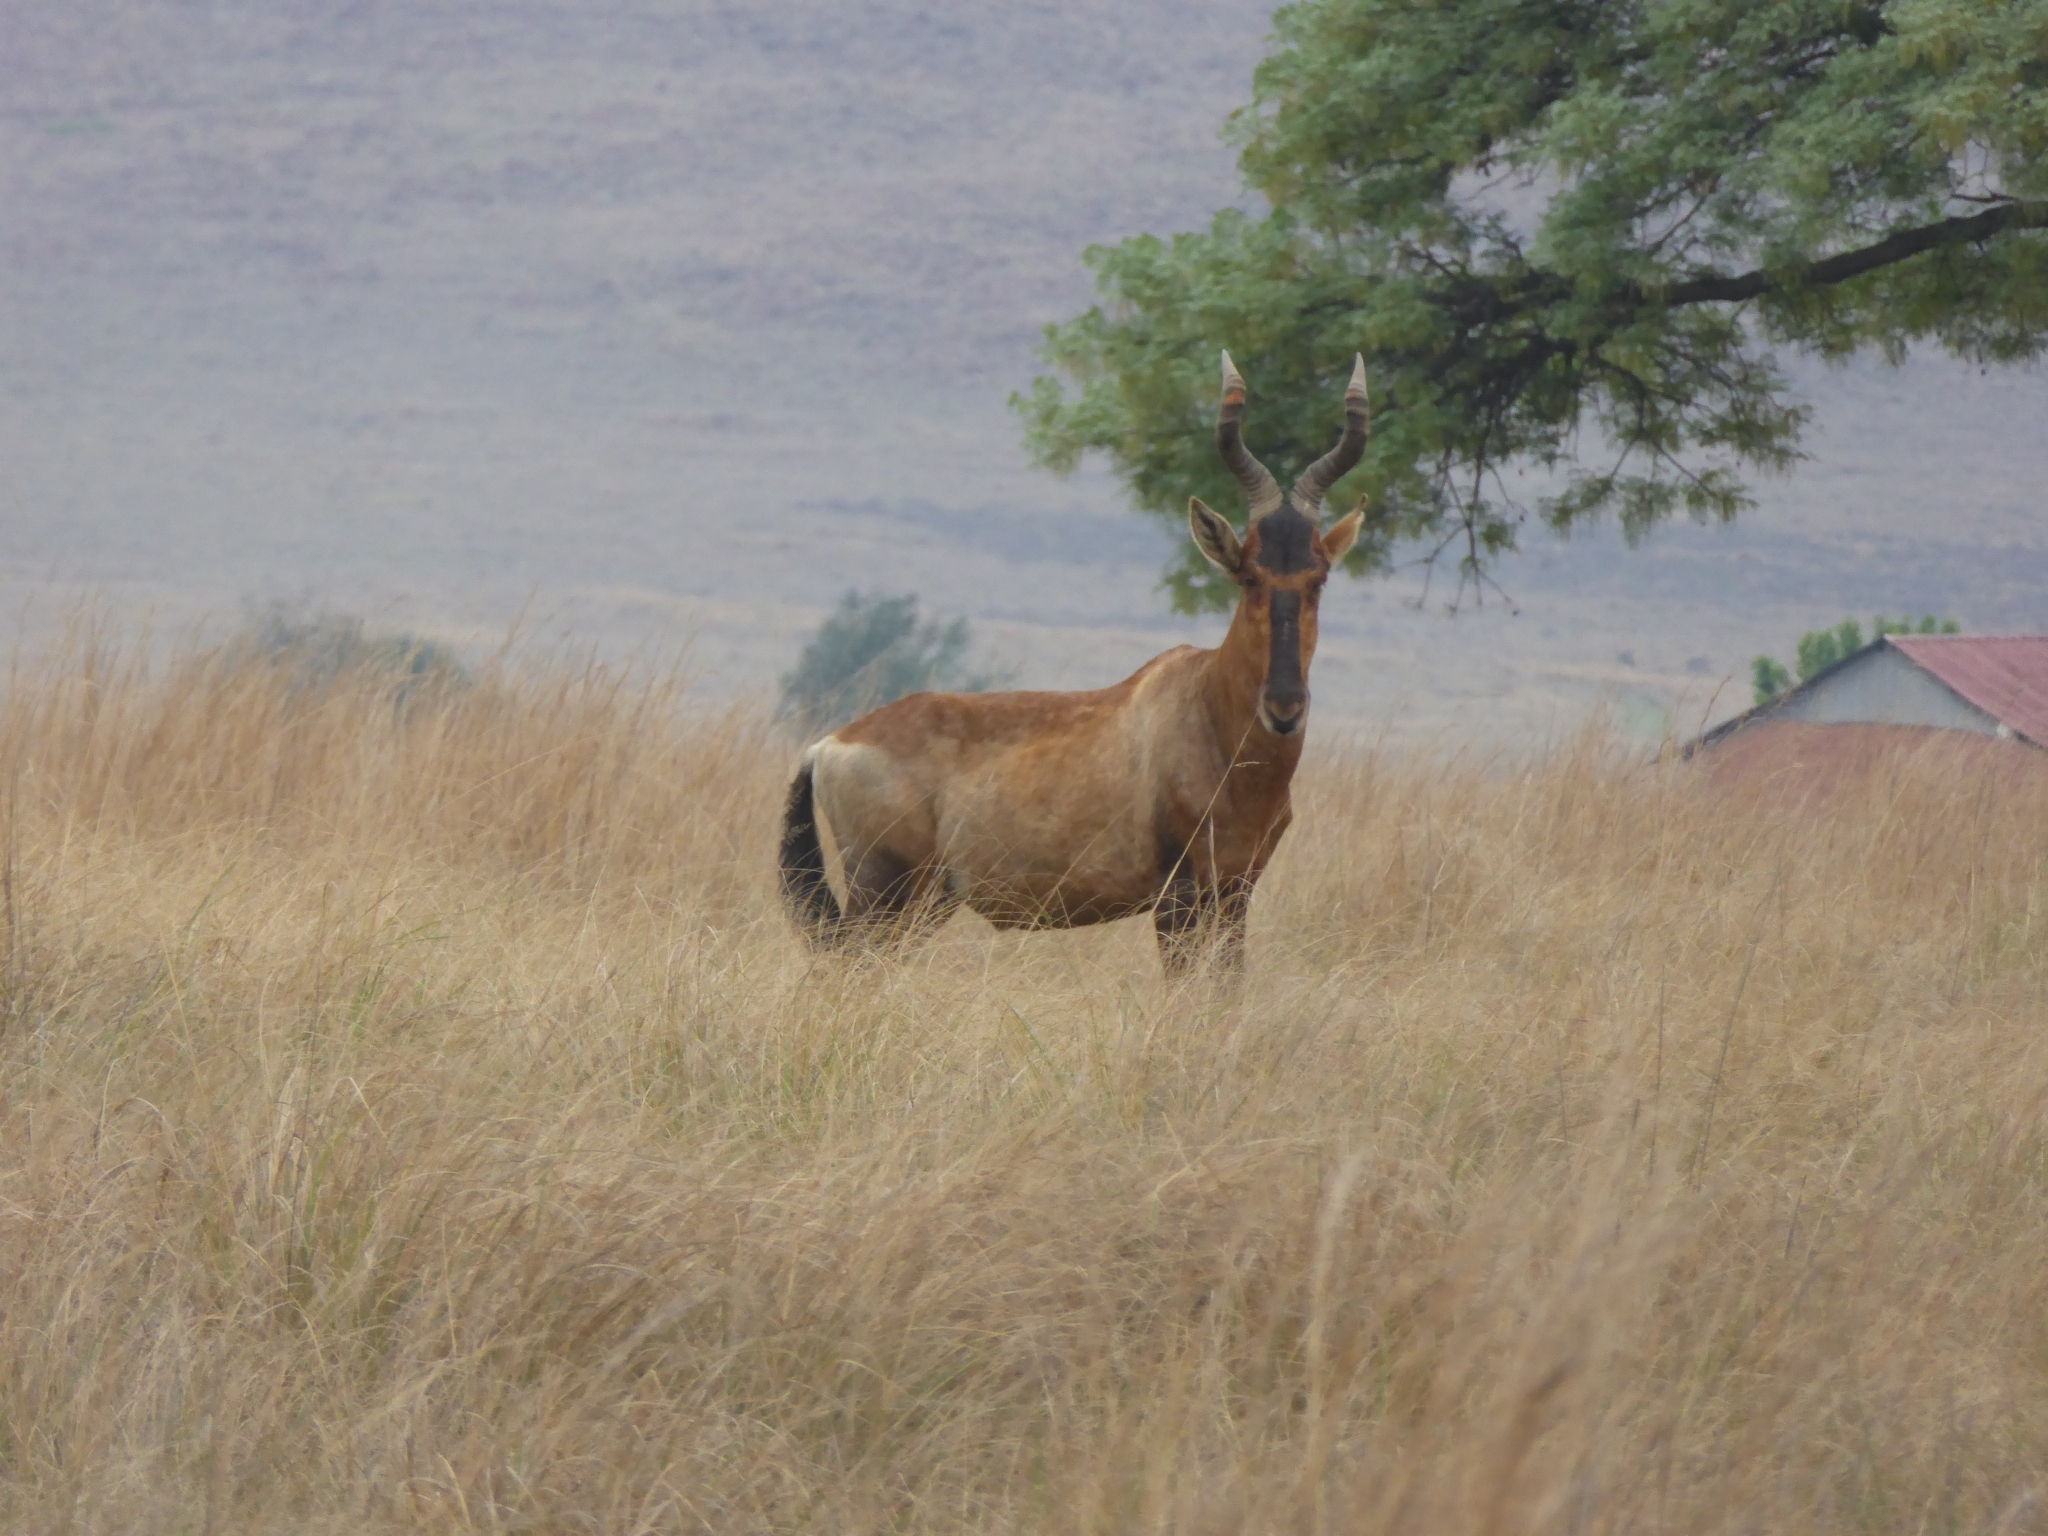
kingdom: Animalia
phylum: Chordata
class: Mammalia
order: Artiodactyla
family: Bovidae
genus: Alcelaphus
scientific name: Alcelaphus caama
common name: Red hartebeest
